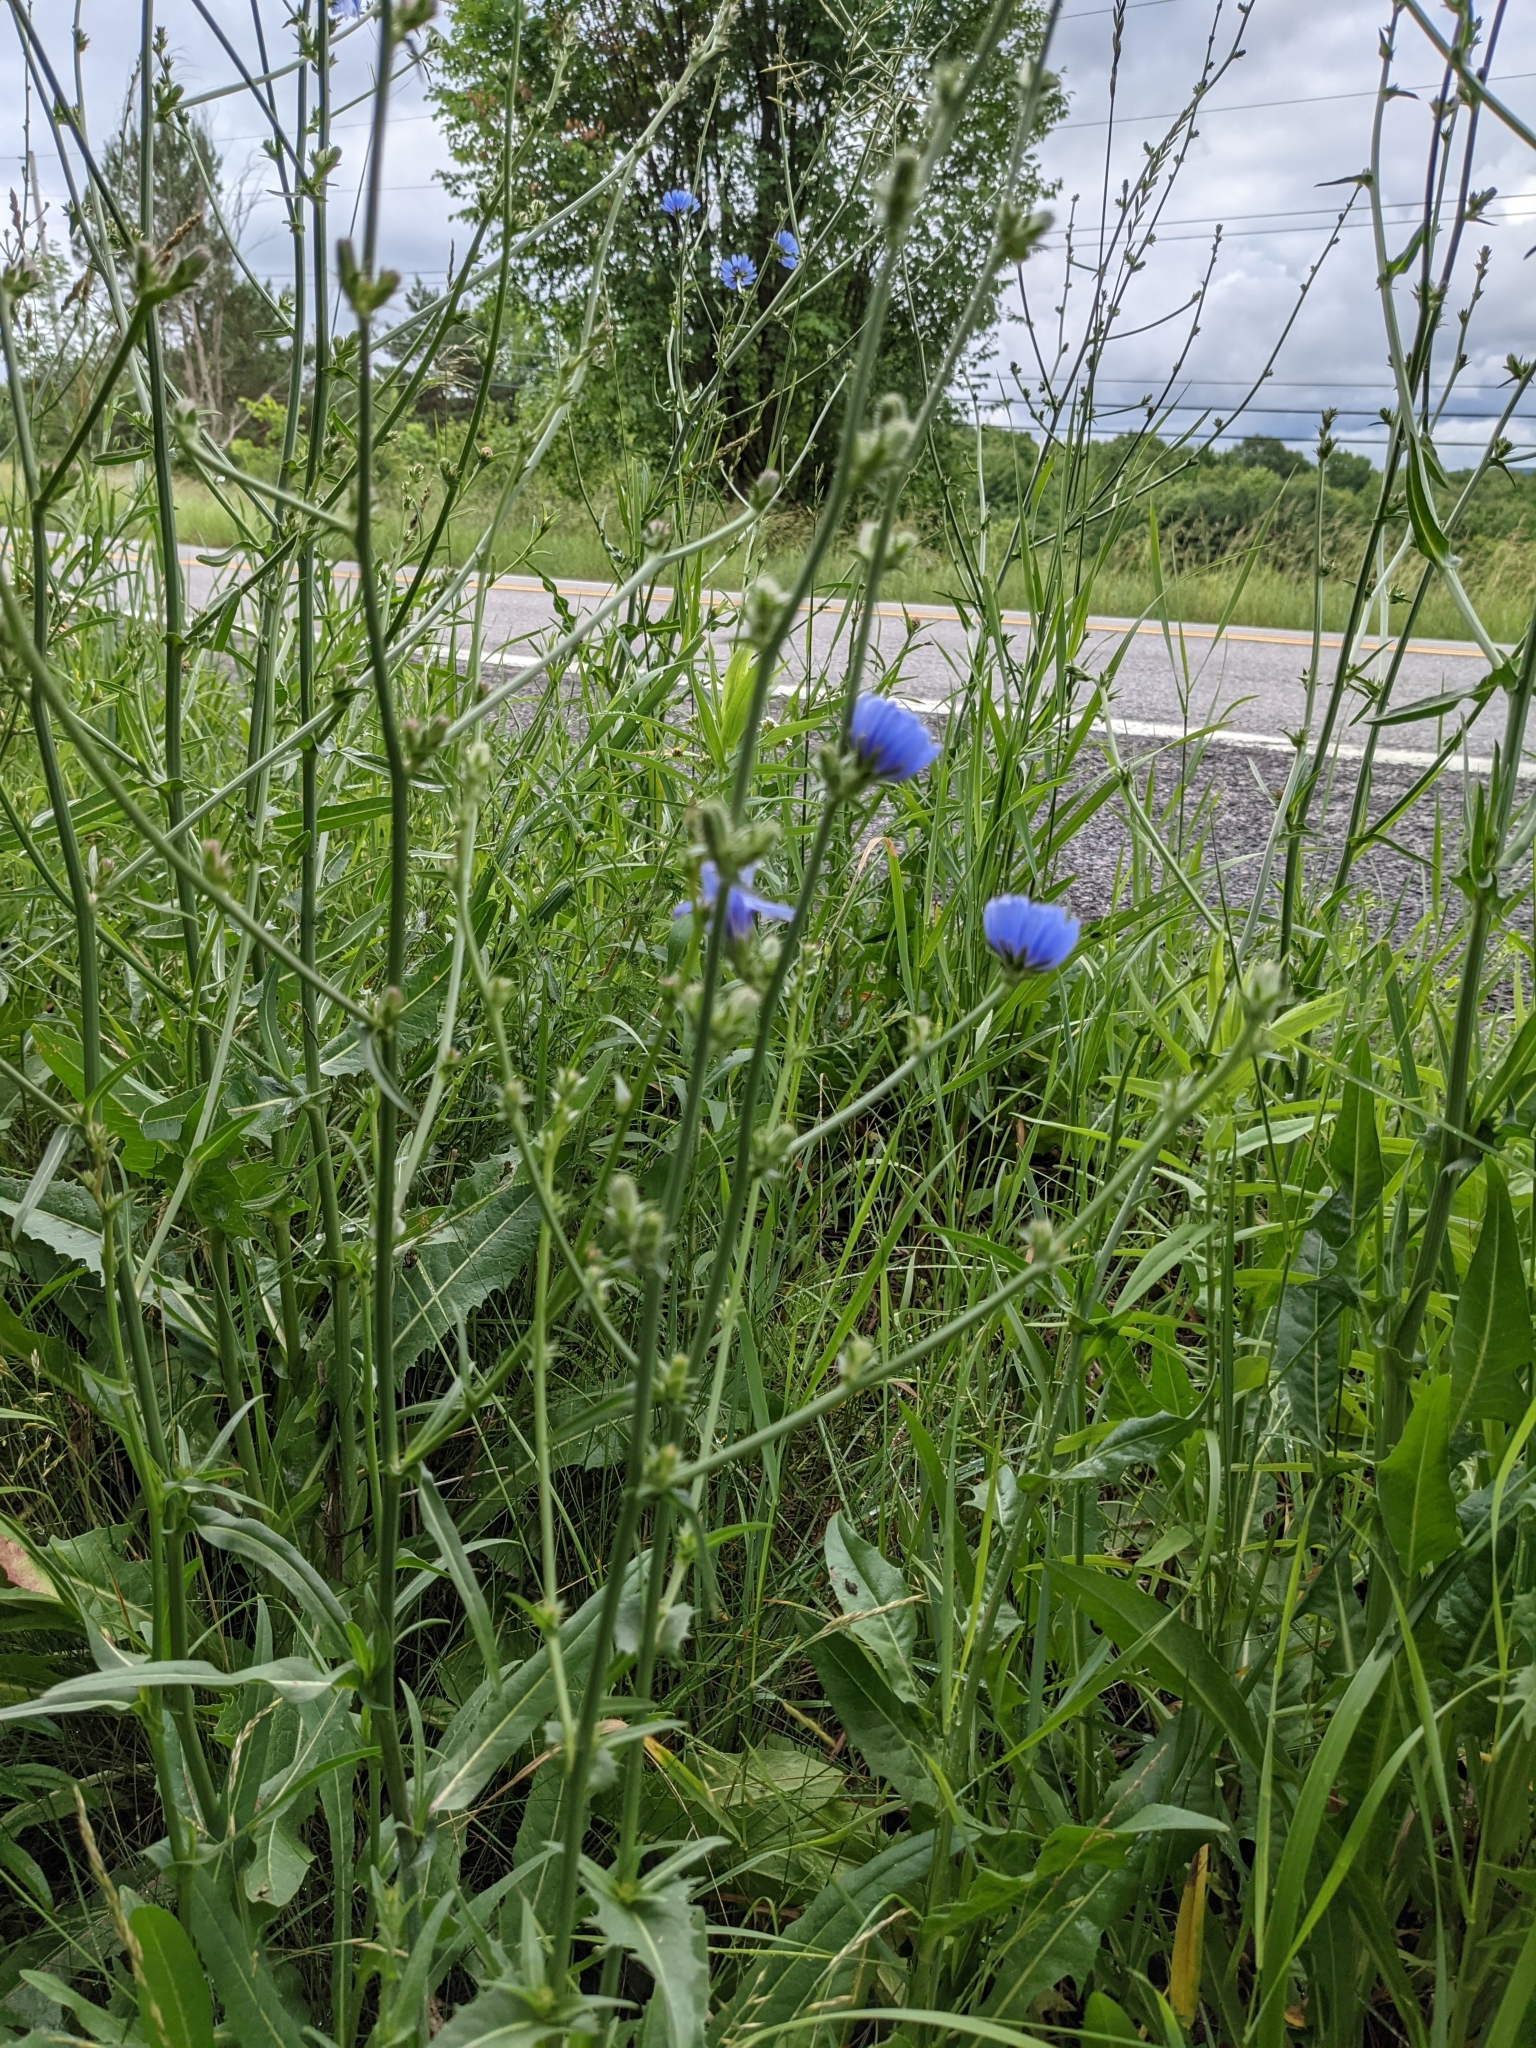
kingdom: Plantae
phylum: Tracheophyta
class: Magnoliopsida
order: Asterales
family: Asteraceae
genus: Cichorium
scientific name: Cichorium intybus
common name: Chicory
